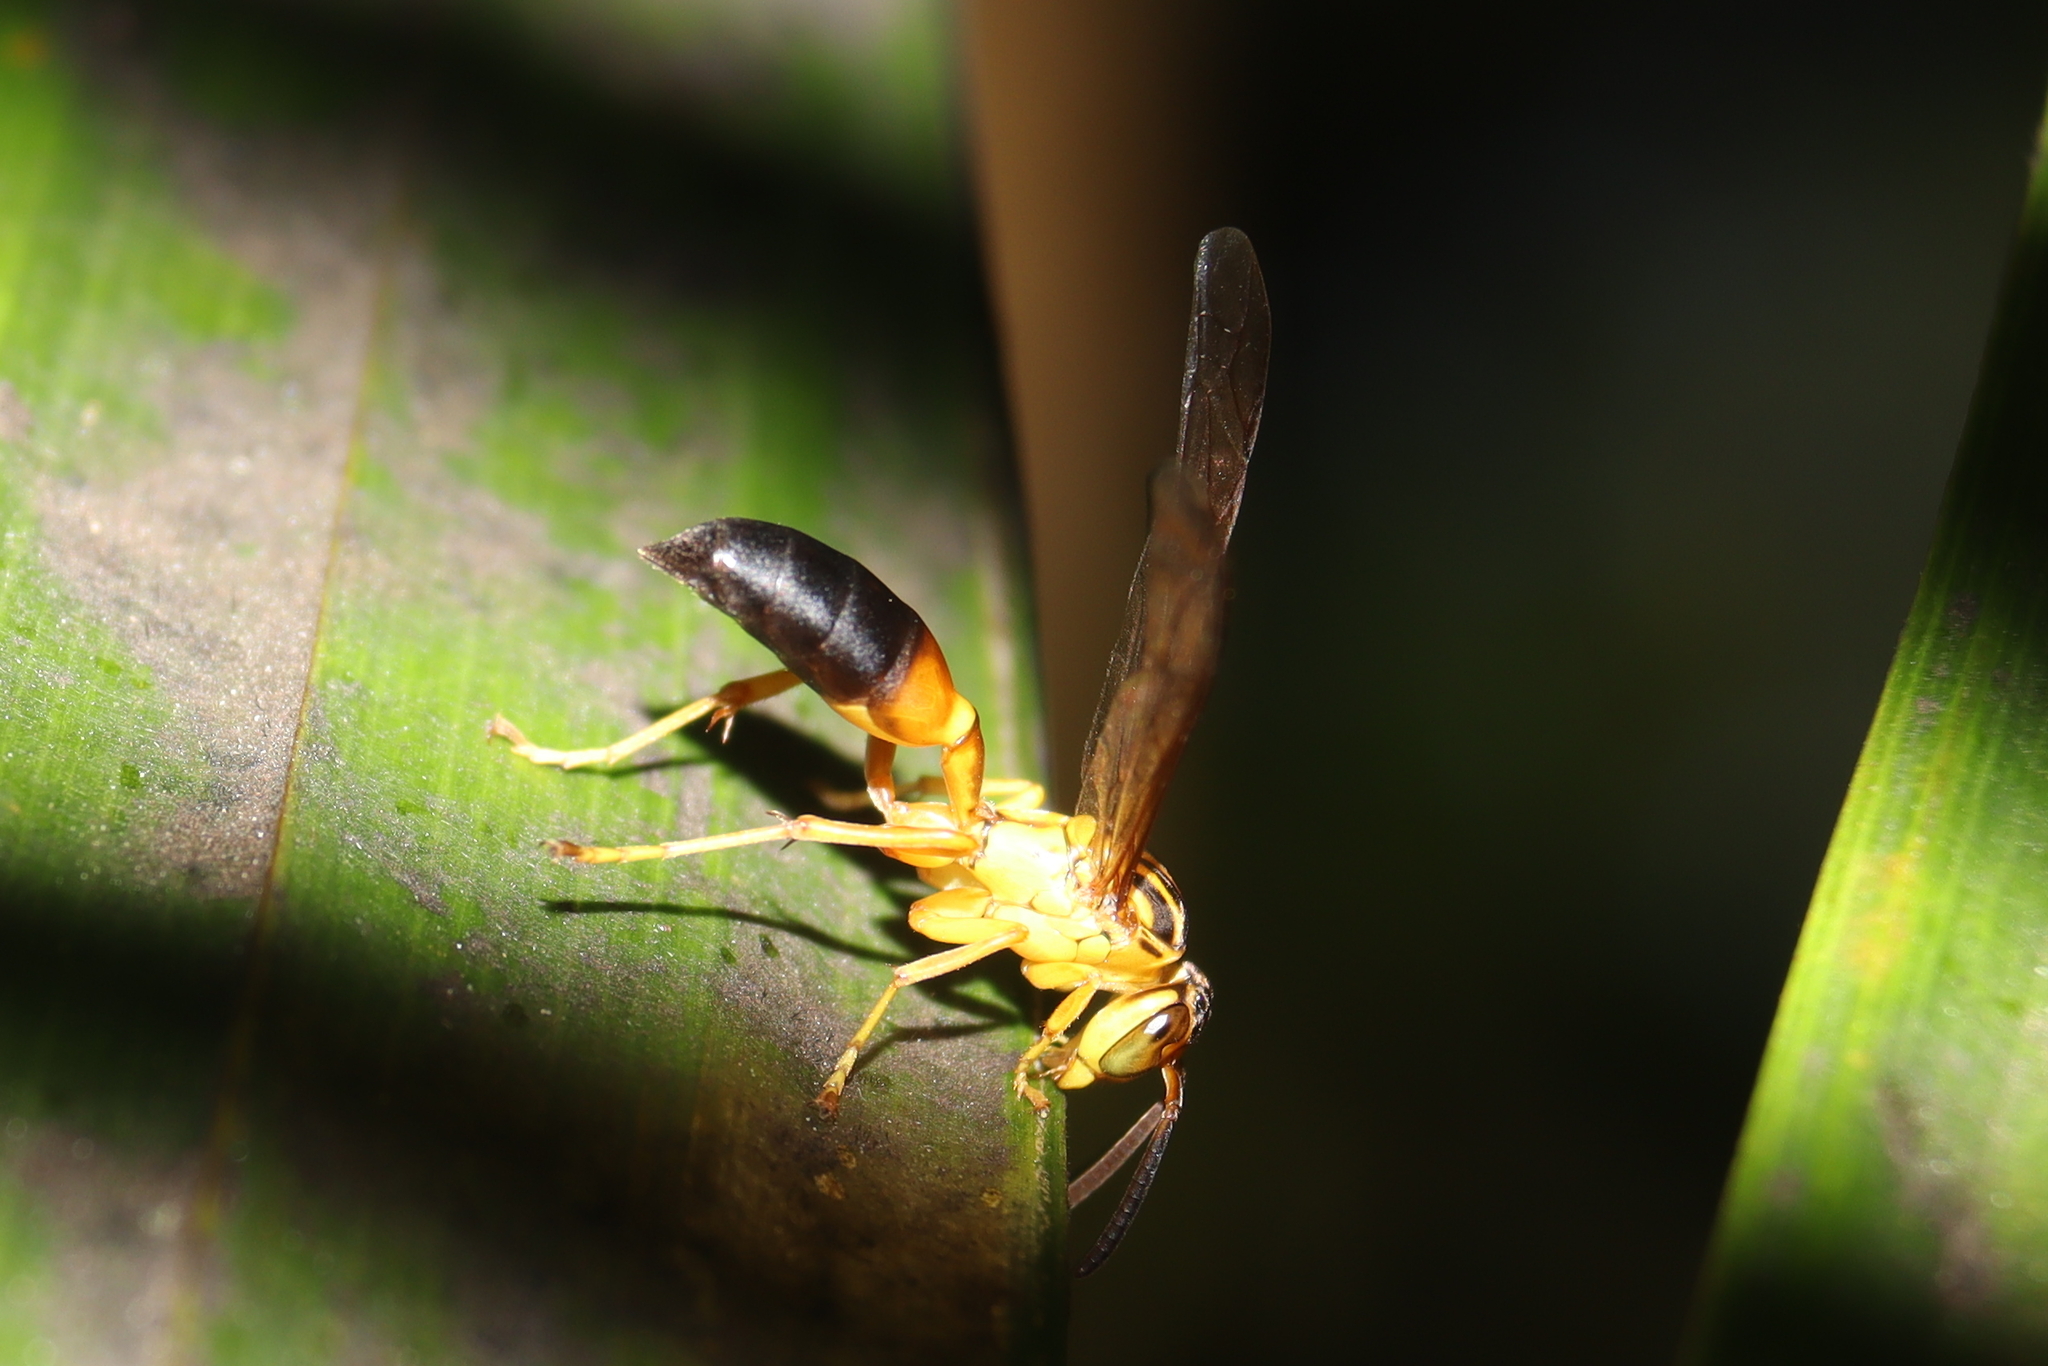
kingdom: Animalia
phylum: Arthropoda
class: Insecta
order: Hymenoptera
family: Vespidae
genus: Agelaia
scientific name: Agelaia pallipes
